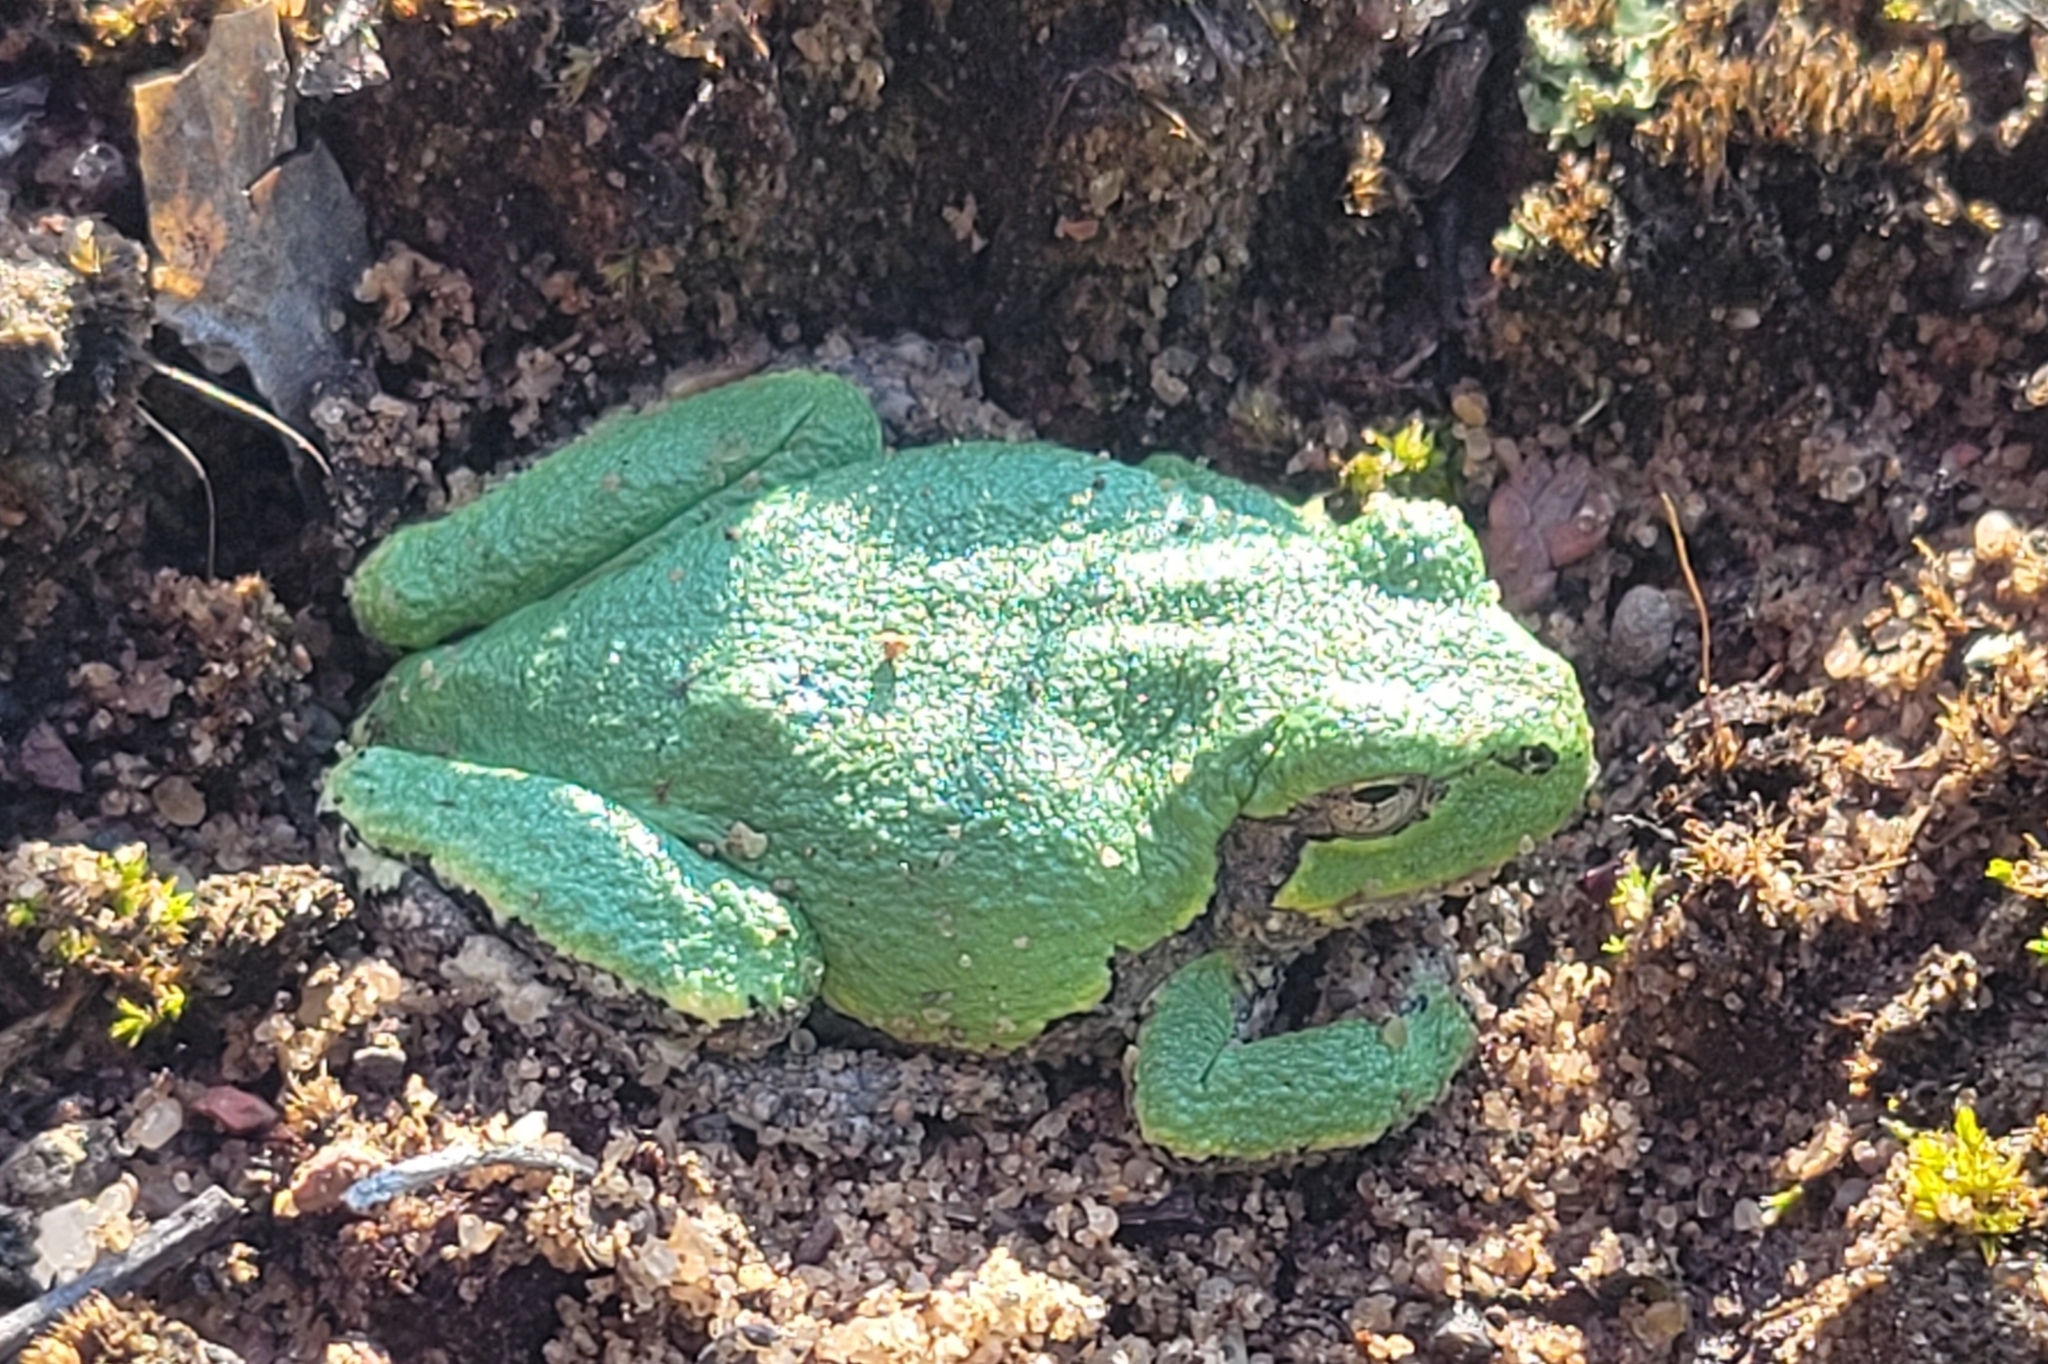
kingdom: Animalia
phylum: Chordata
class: Amphibia
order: Anura
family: Hylidae
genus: Dryophytes
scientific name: Dryophytes versicolor
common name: Gray treefrog
